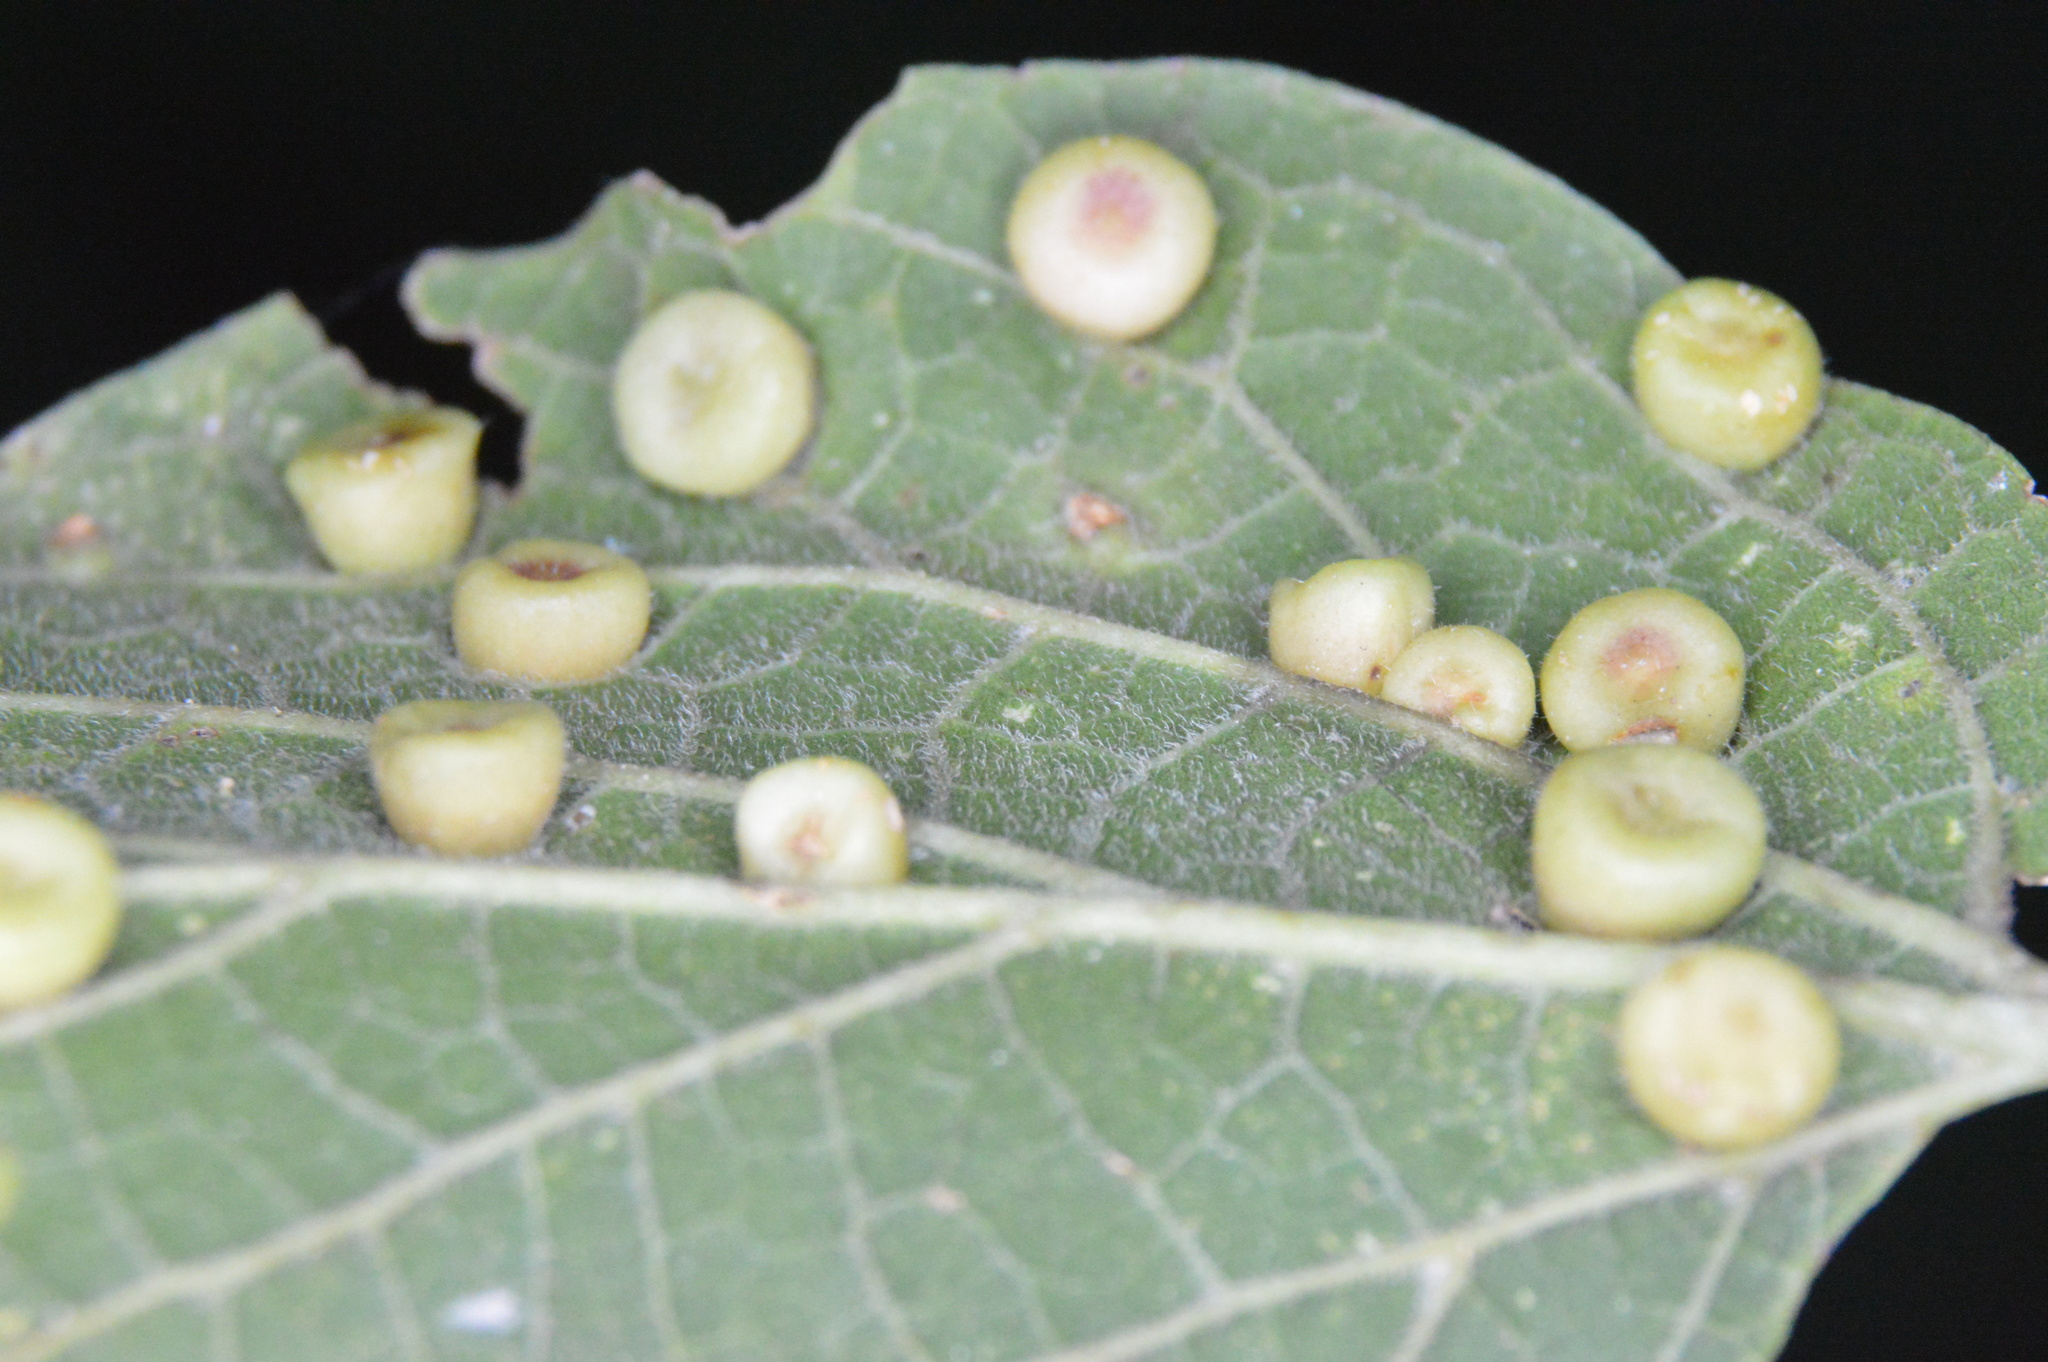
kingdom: Animalia
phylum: Arthropoda
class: Insecta
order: Hemiptera
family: Aphalaridae
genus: Pachypsylla
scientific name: Pachypsylla celtidismamma
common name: Hackberry nipplegall psyllid
